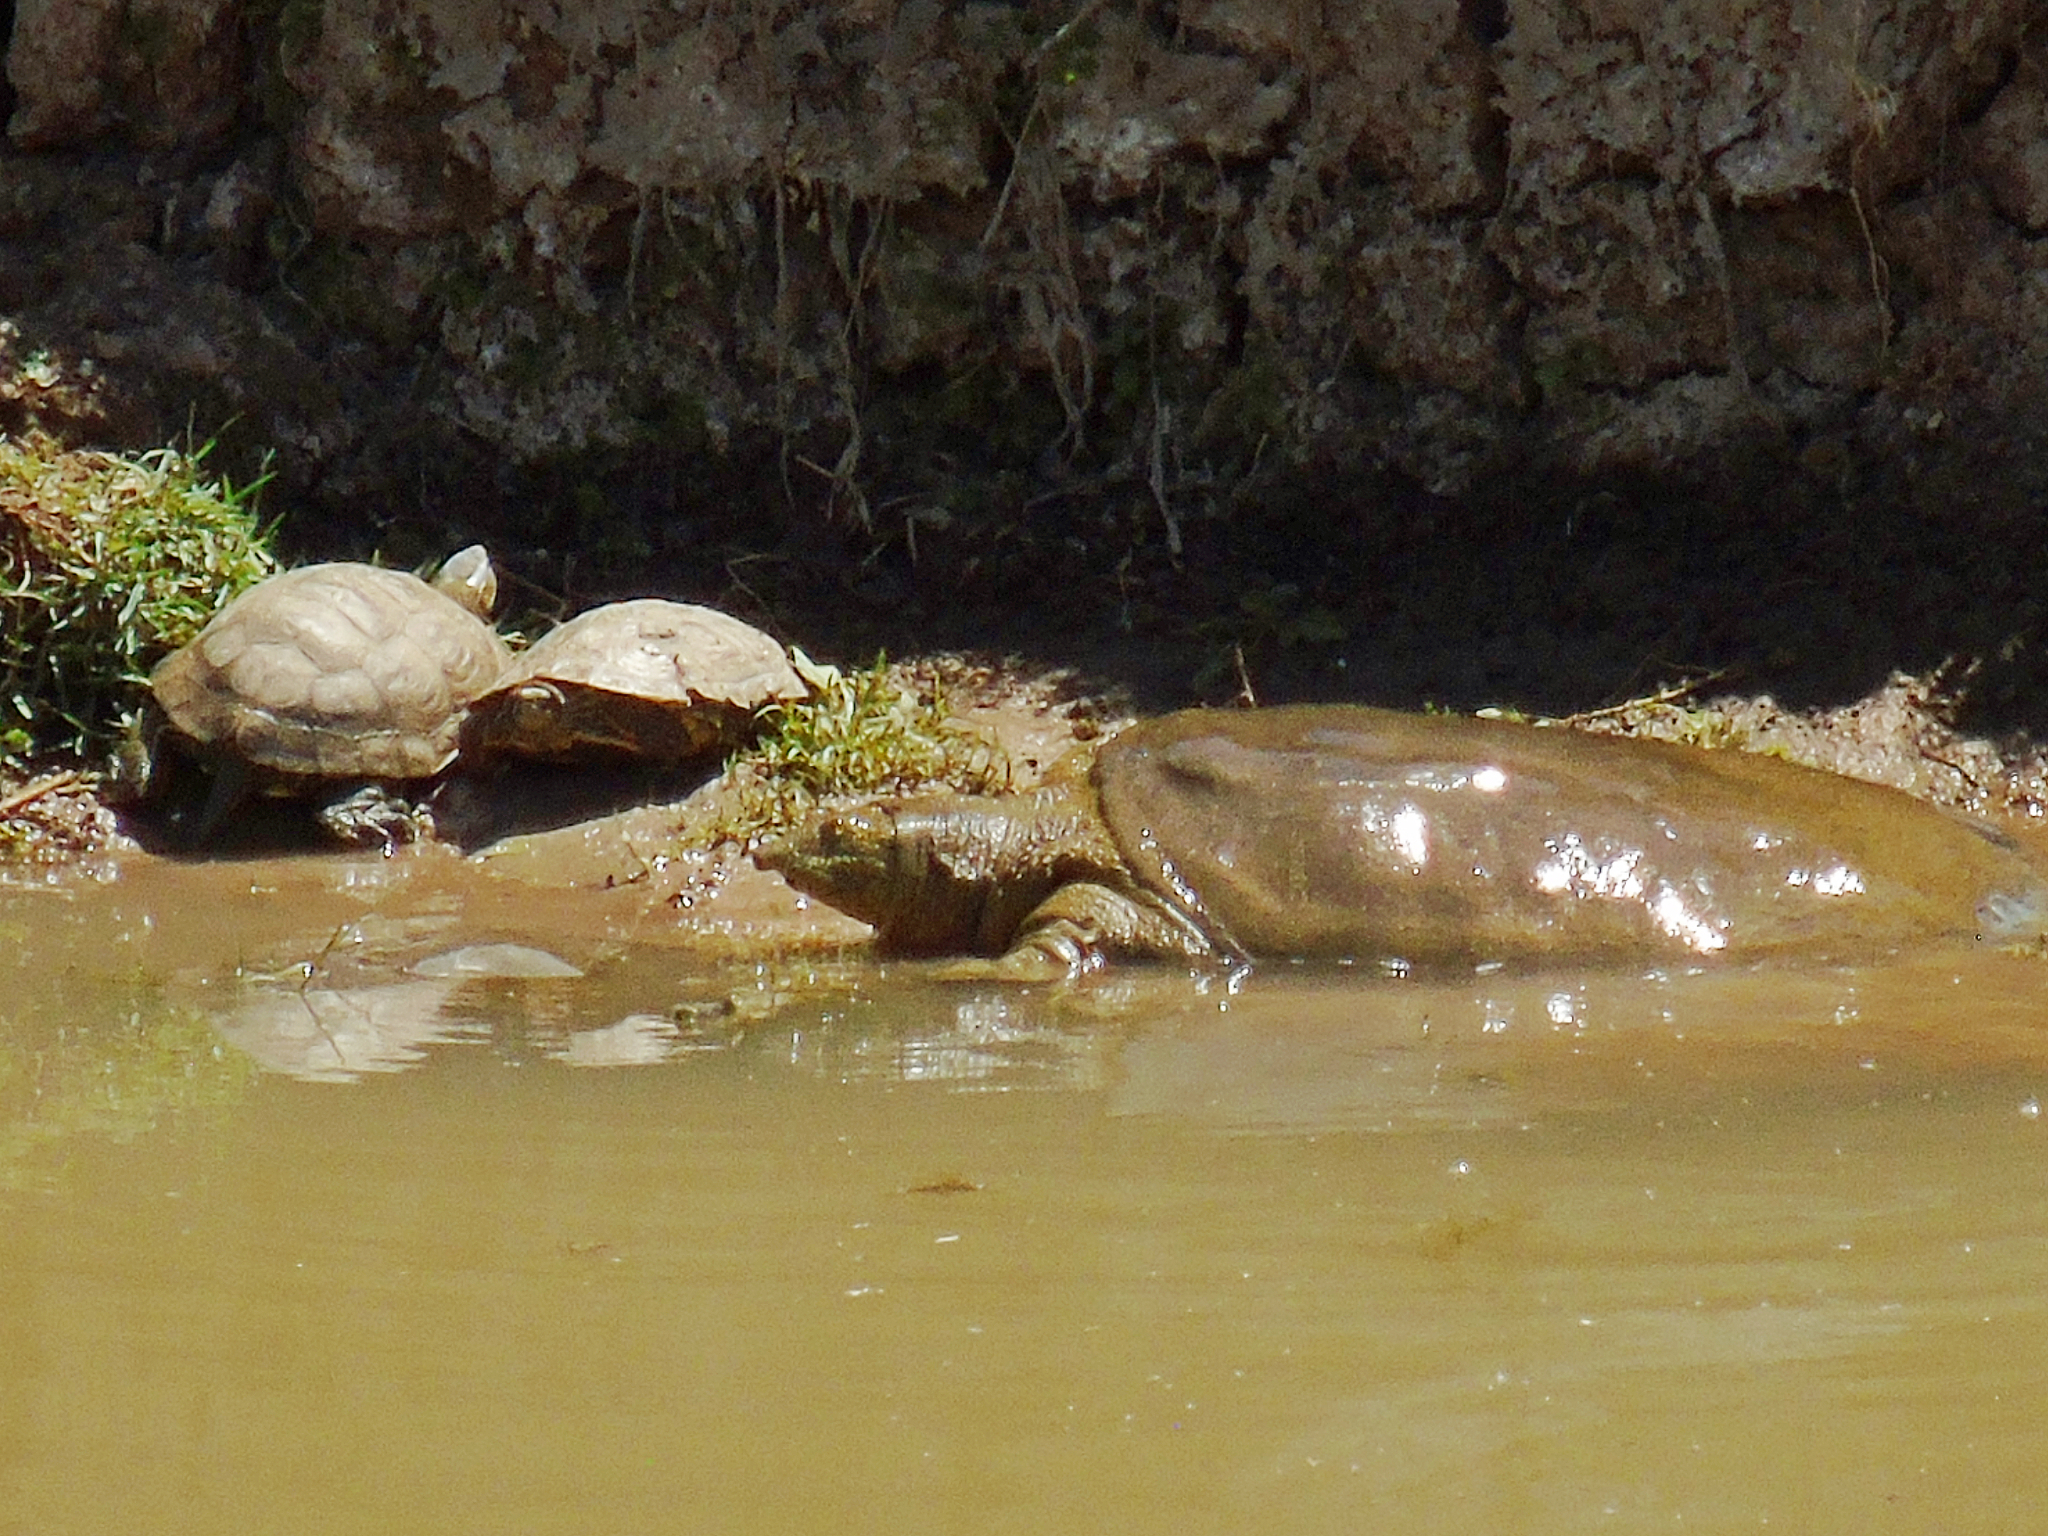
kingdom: Animalia
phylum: Chordata
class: Testudines
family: Trionychidae
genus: Rafetus
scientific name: Rafetus euphraticus
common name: Euphrates softshell
